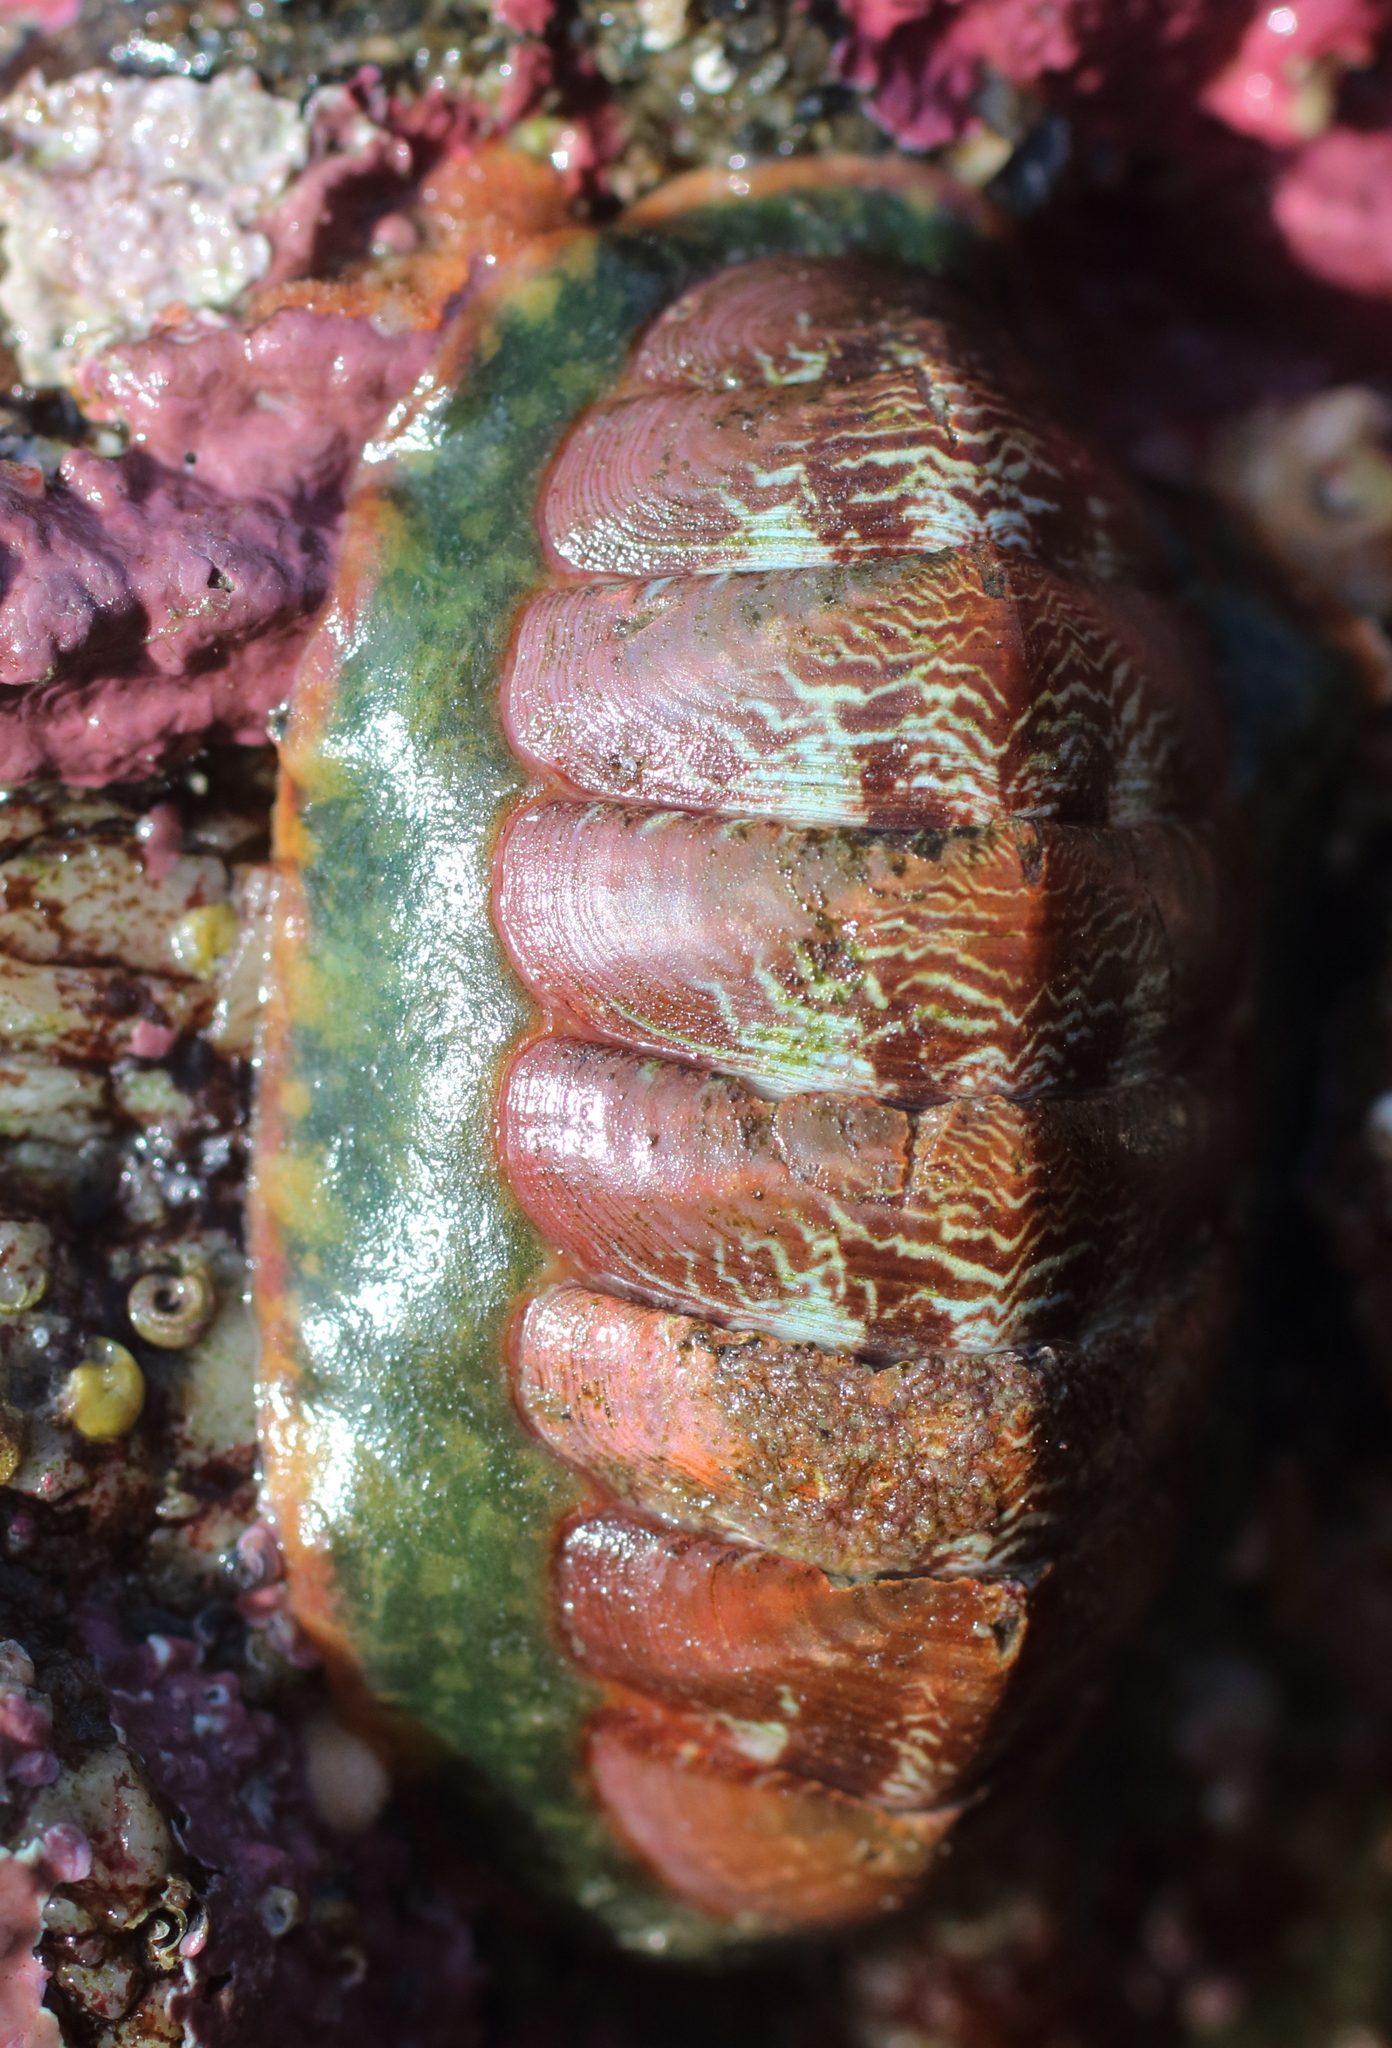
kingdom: Animalia
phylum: Mollusca
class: Polyplacophora
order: Chitonida
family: Tonicellidae
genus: Tonicella
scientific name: Tonicella insignis
